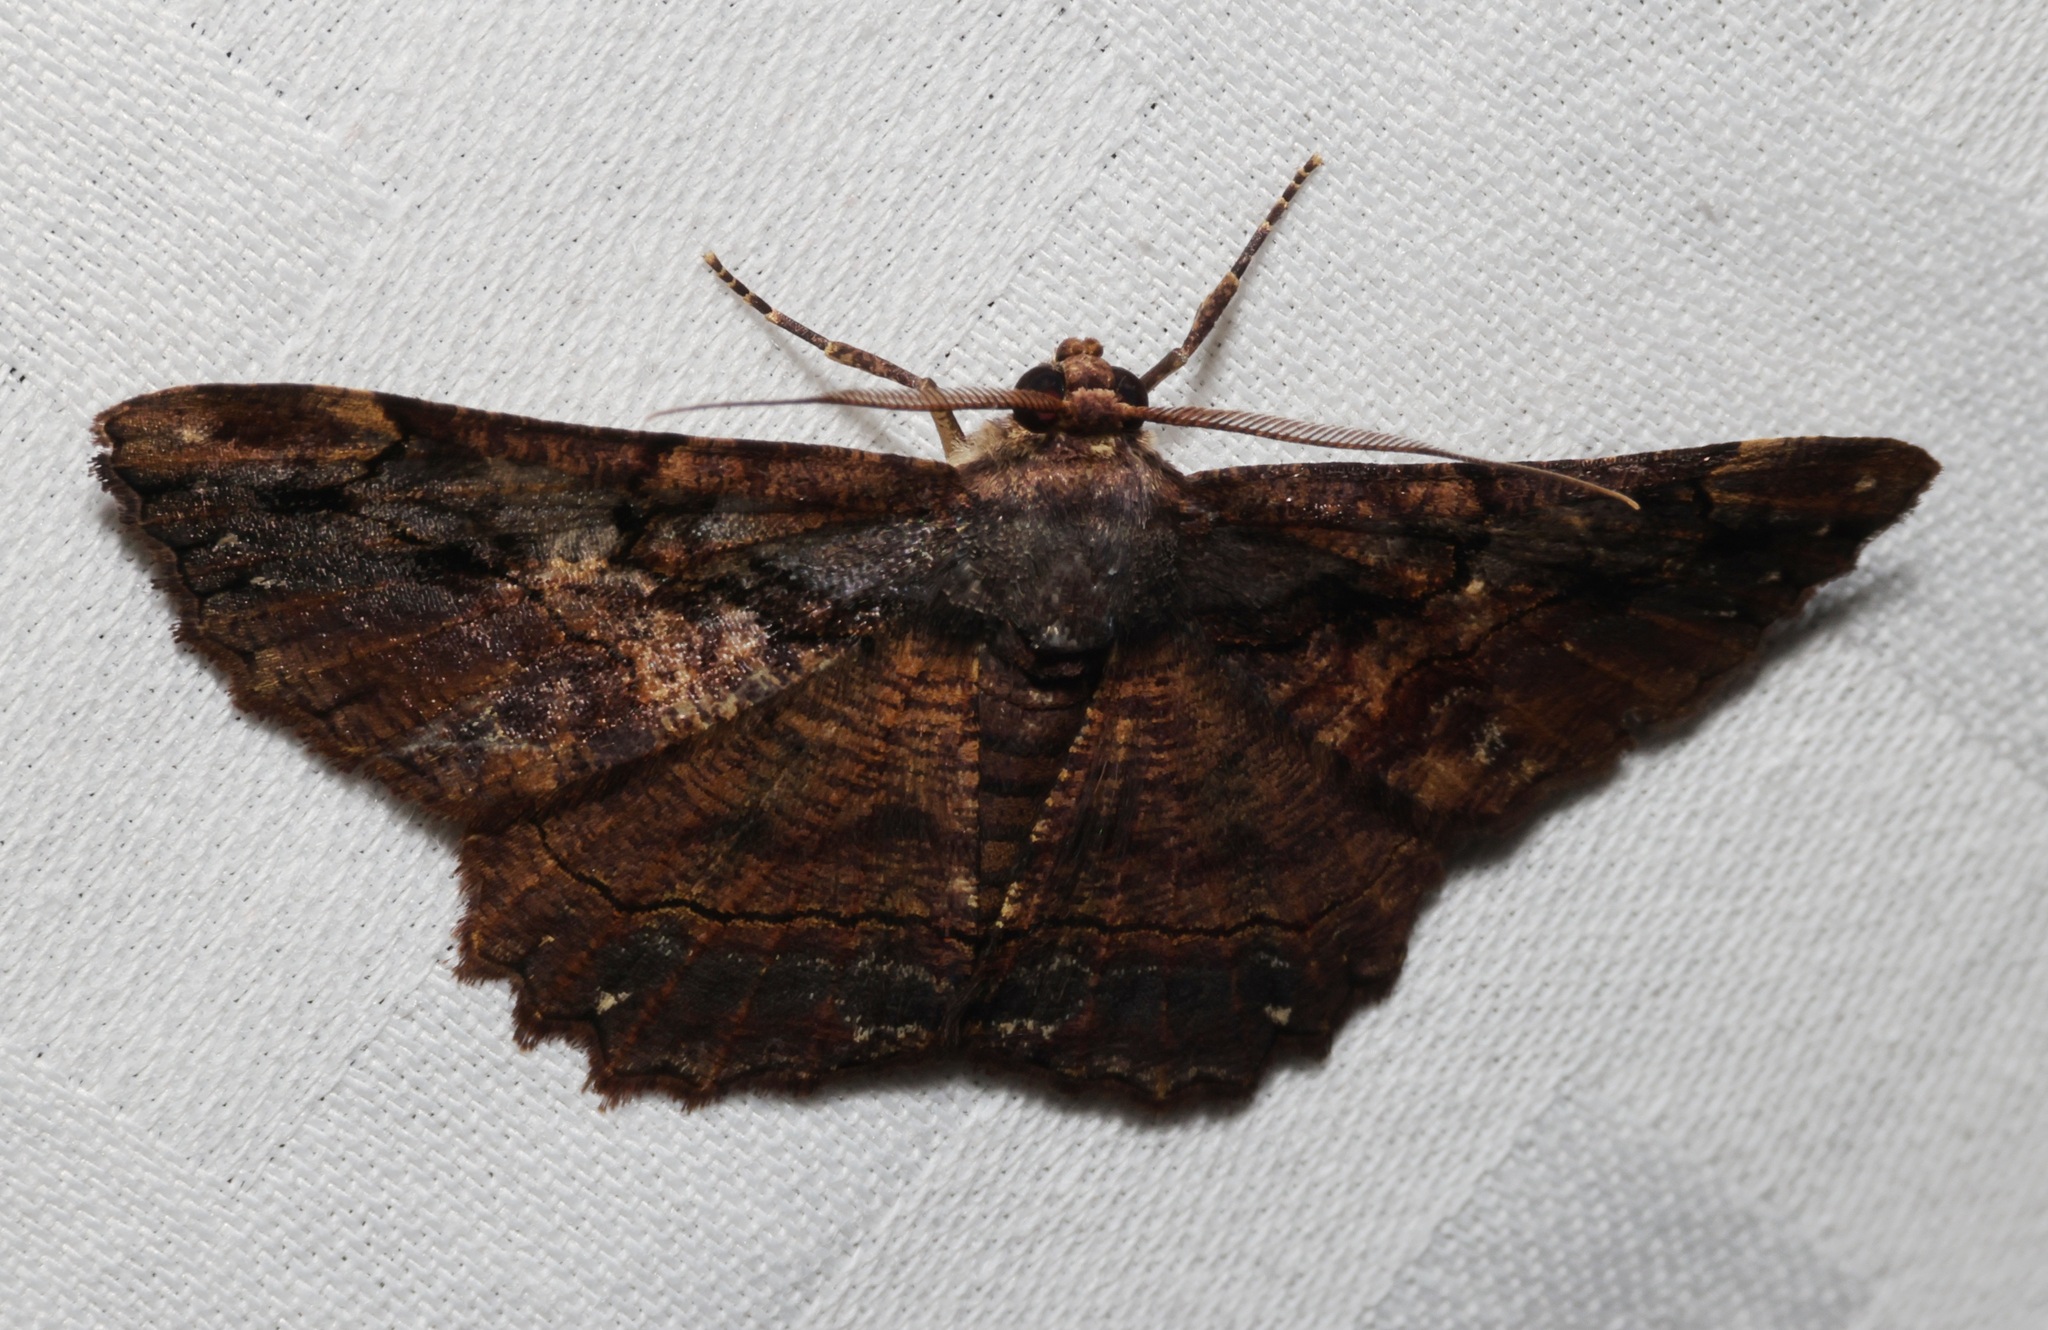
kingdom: Animalia
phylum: Arthropoda
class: Insecta
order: Lepidoptera
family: Geometridae
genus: Dasyboarmia
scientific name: Dasyboarmia subpilosa
